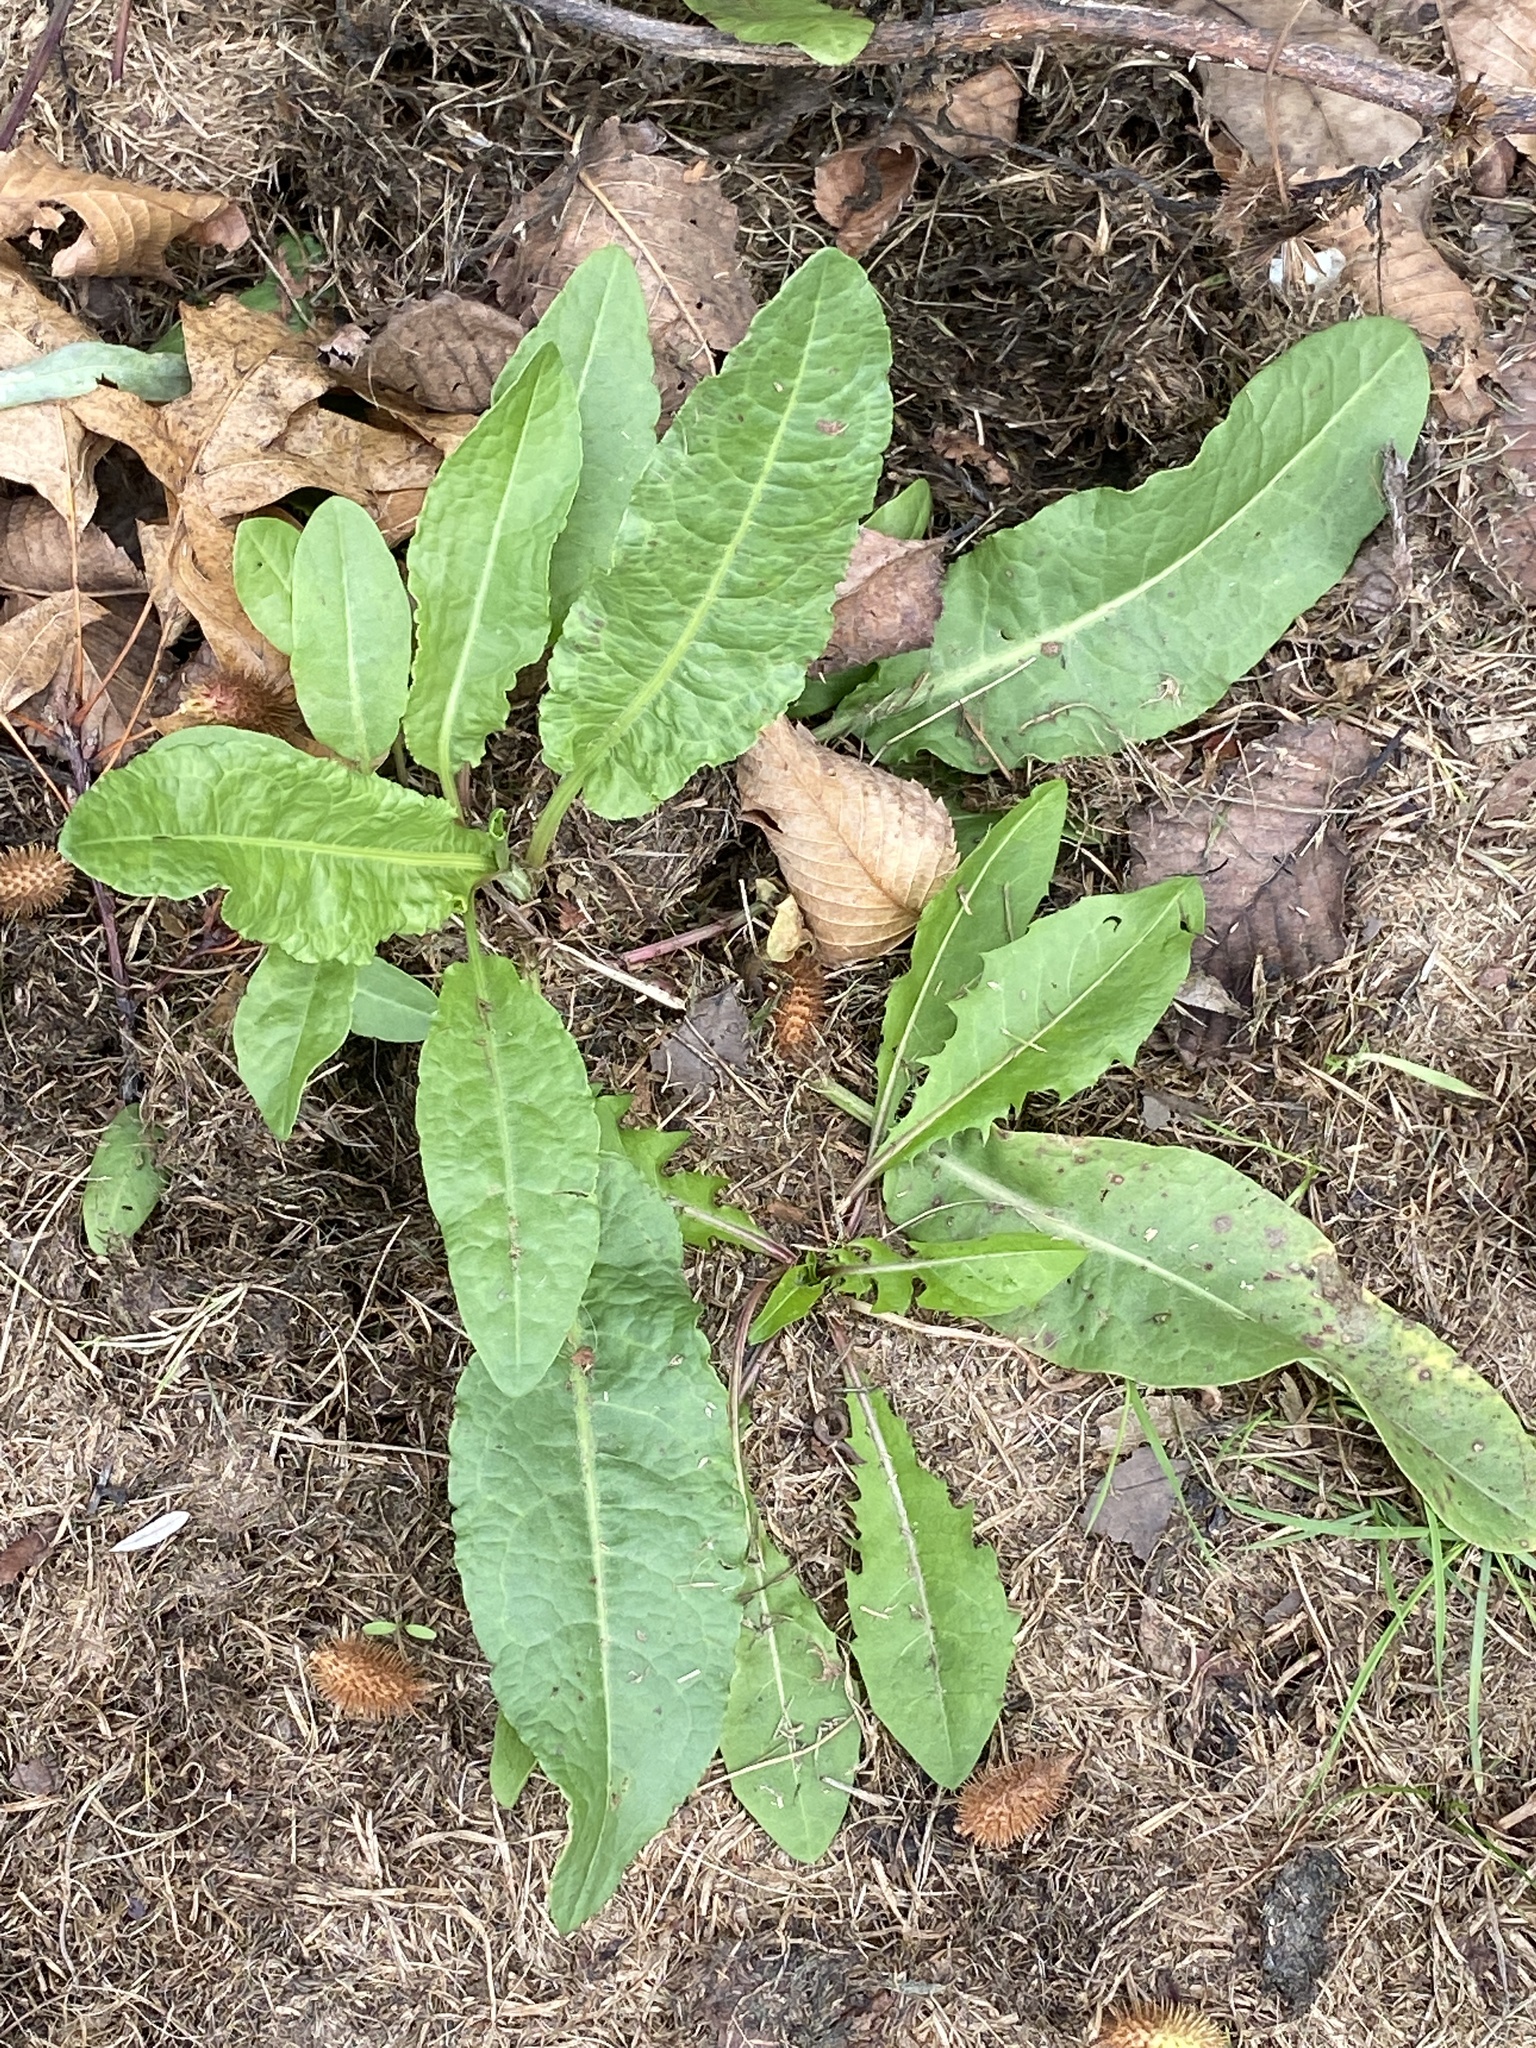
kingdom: Plantae
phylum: Tracheophyta
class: Magnoliopsida
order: Caryophyllales
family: Polygonaceae
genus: Rumex
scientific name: Rumex crispus
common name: Curled dock
